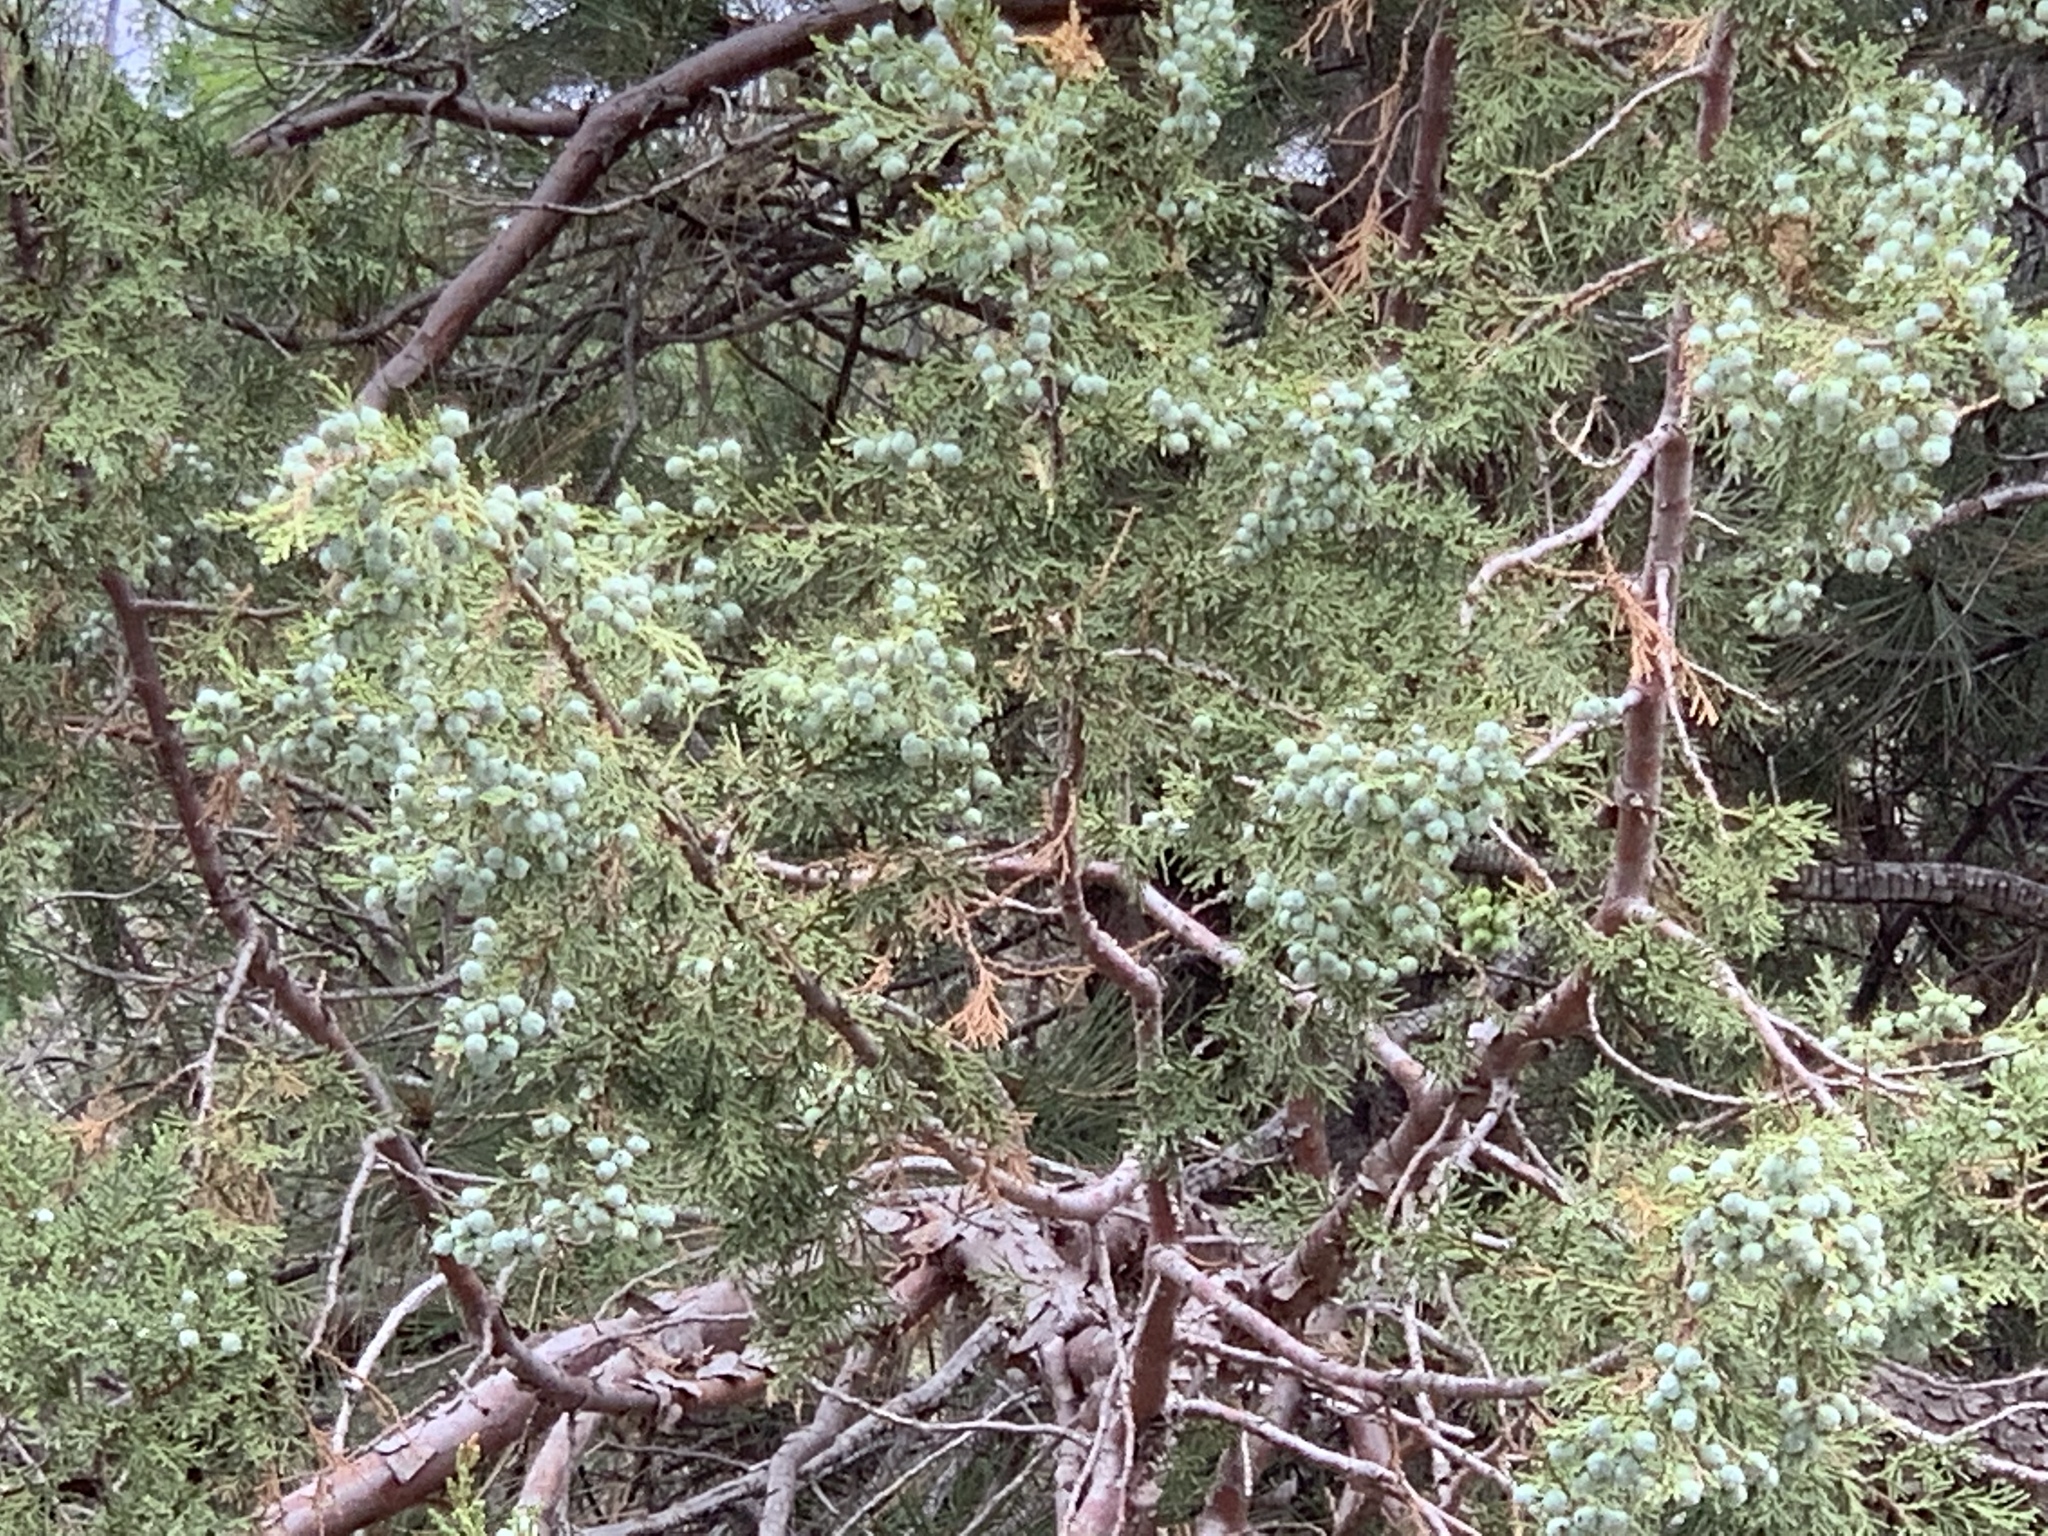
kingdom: Plantae
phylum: Tracheophyta
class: Pinopsida
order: Pinales
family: Cupressaceae
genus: Juniperus
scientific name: Juniperus deppeana
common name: Alligator juniper
